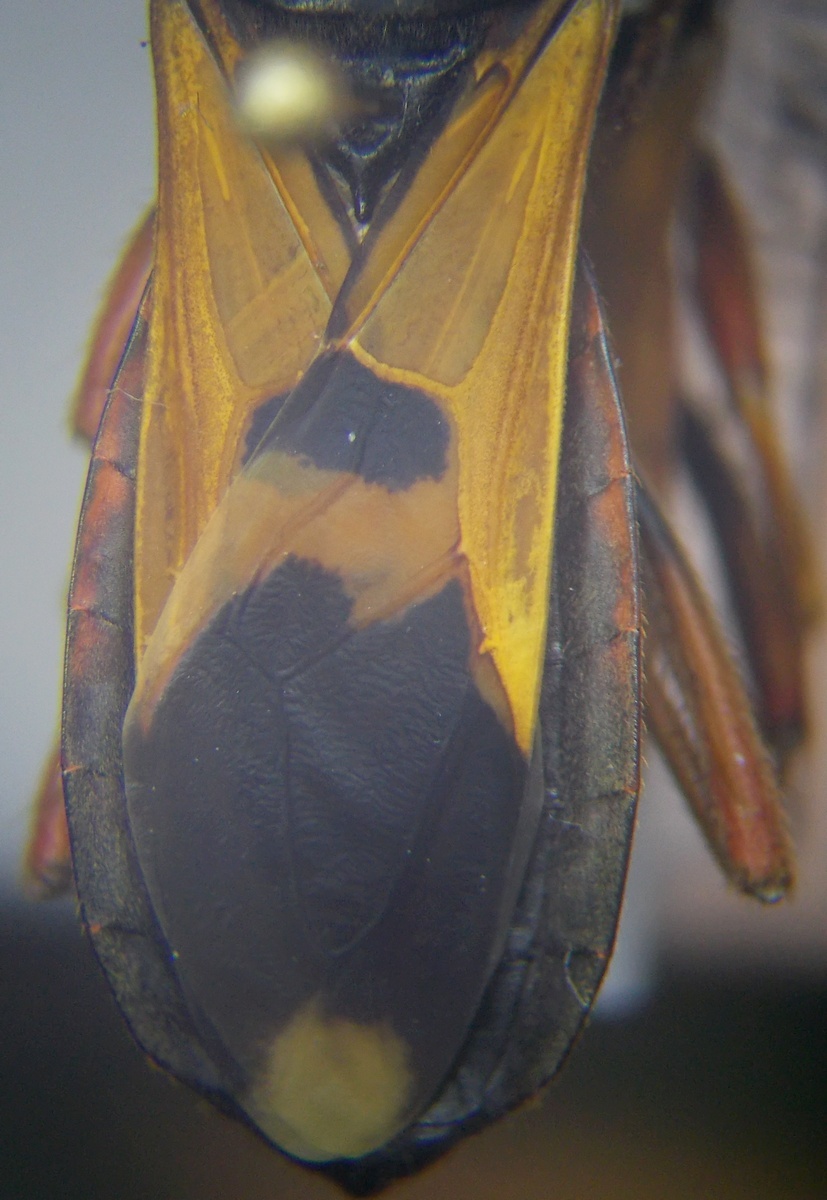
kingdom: Animalia
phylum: Arthropoda
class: Insecta
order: Hemiptera
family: Reduviidae
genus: Ectomocoris
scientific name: Ectomocoris ululans
